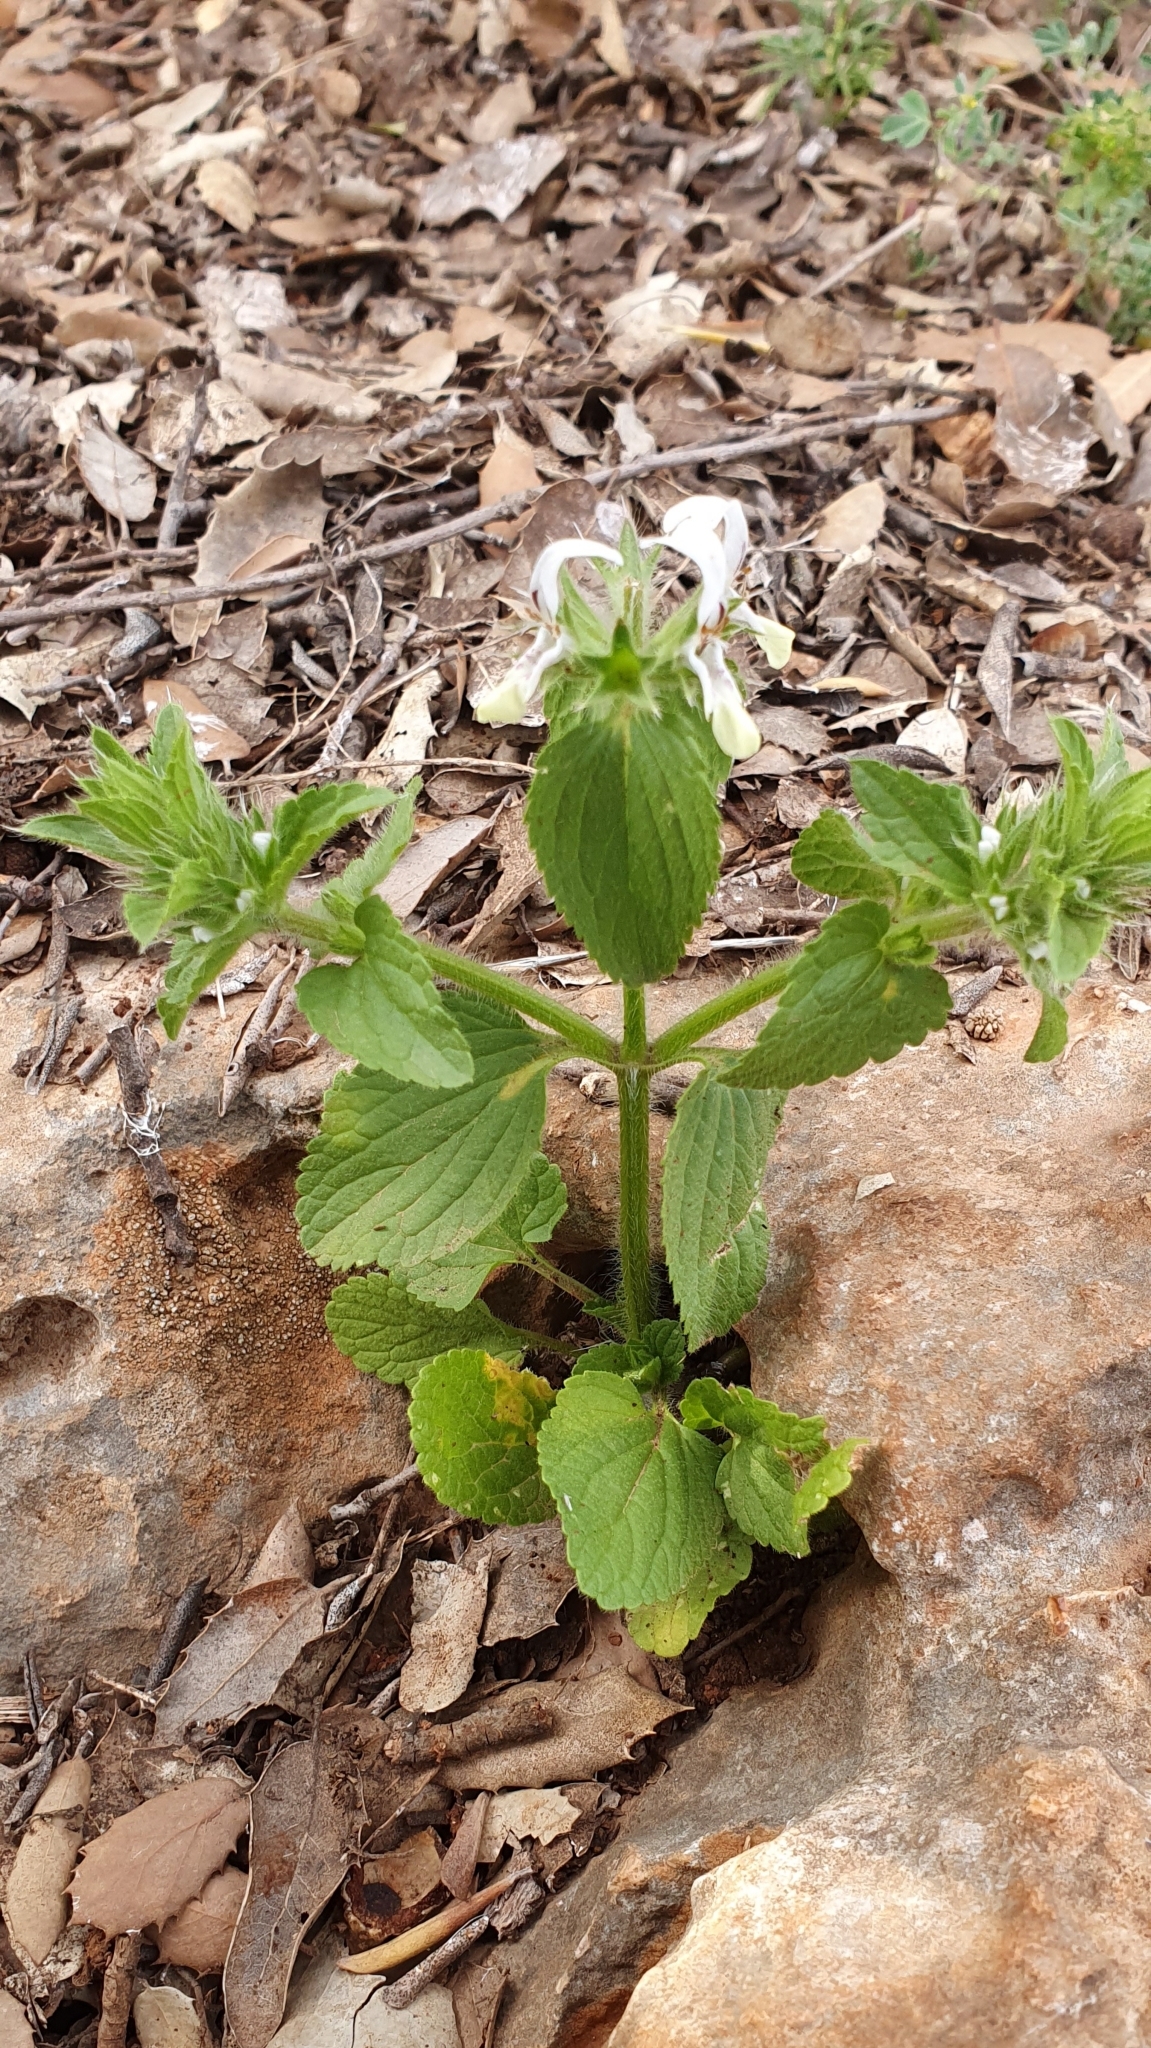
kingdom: Plantae
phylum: Tracheophyta
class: Magnoliopsida
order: Lamiales
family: Lamiaceae
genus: Stachys
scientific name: Stachys ocymastrum
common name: Italian hedgenettle
